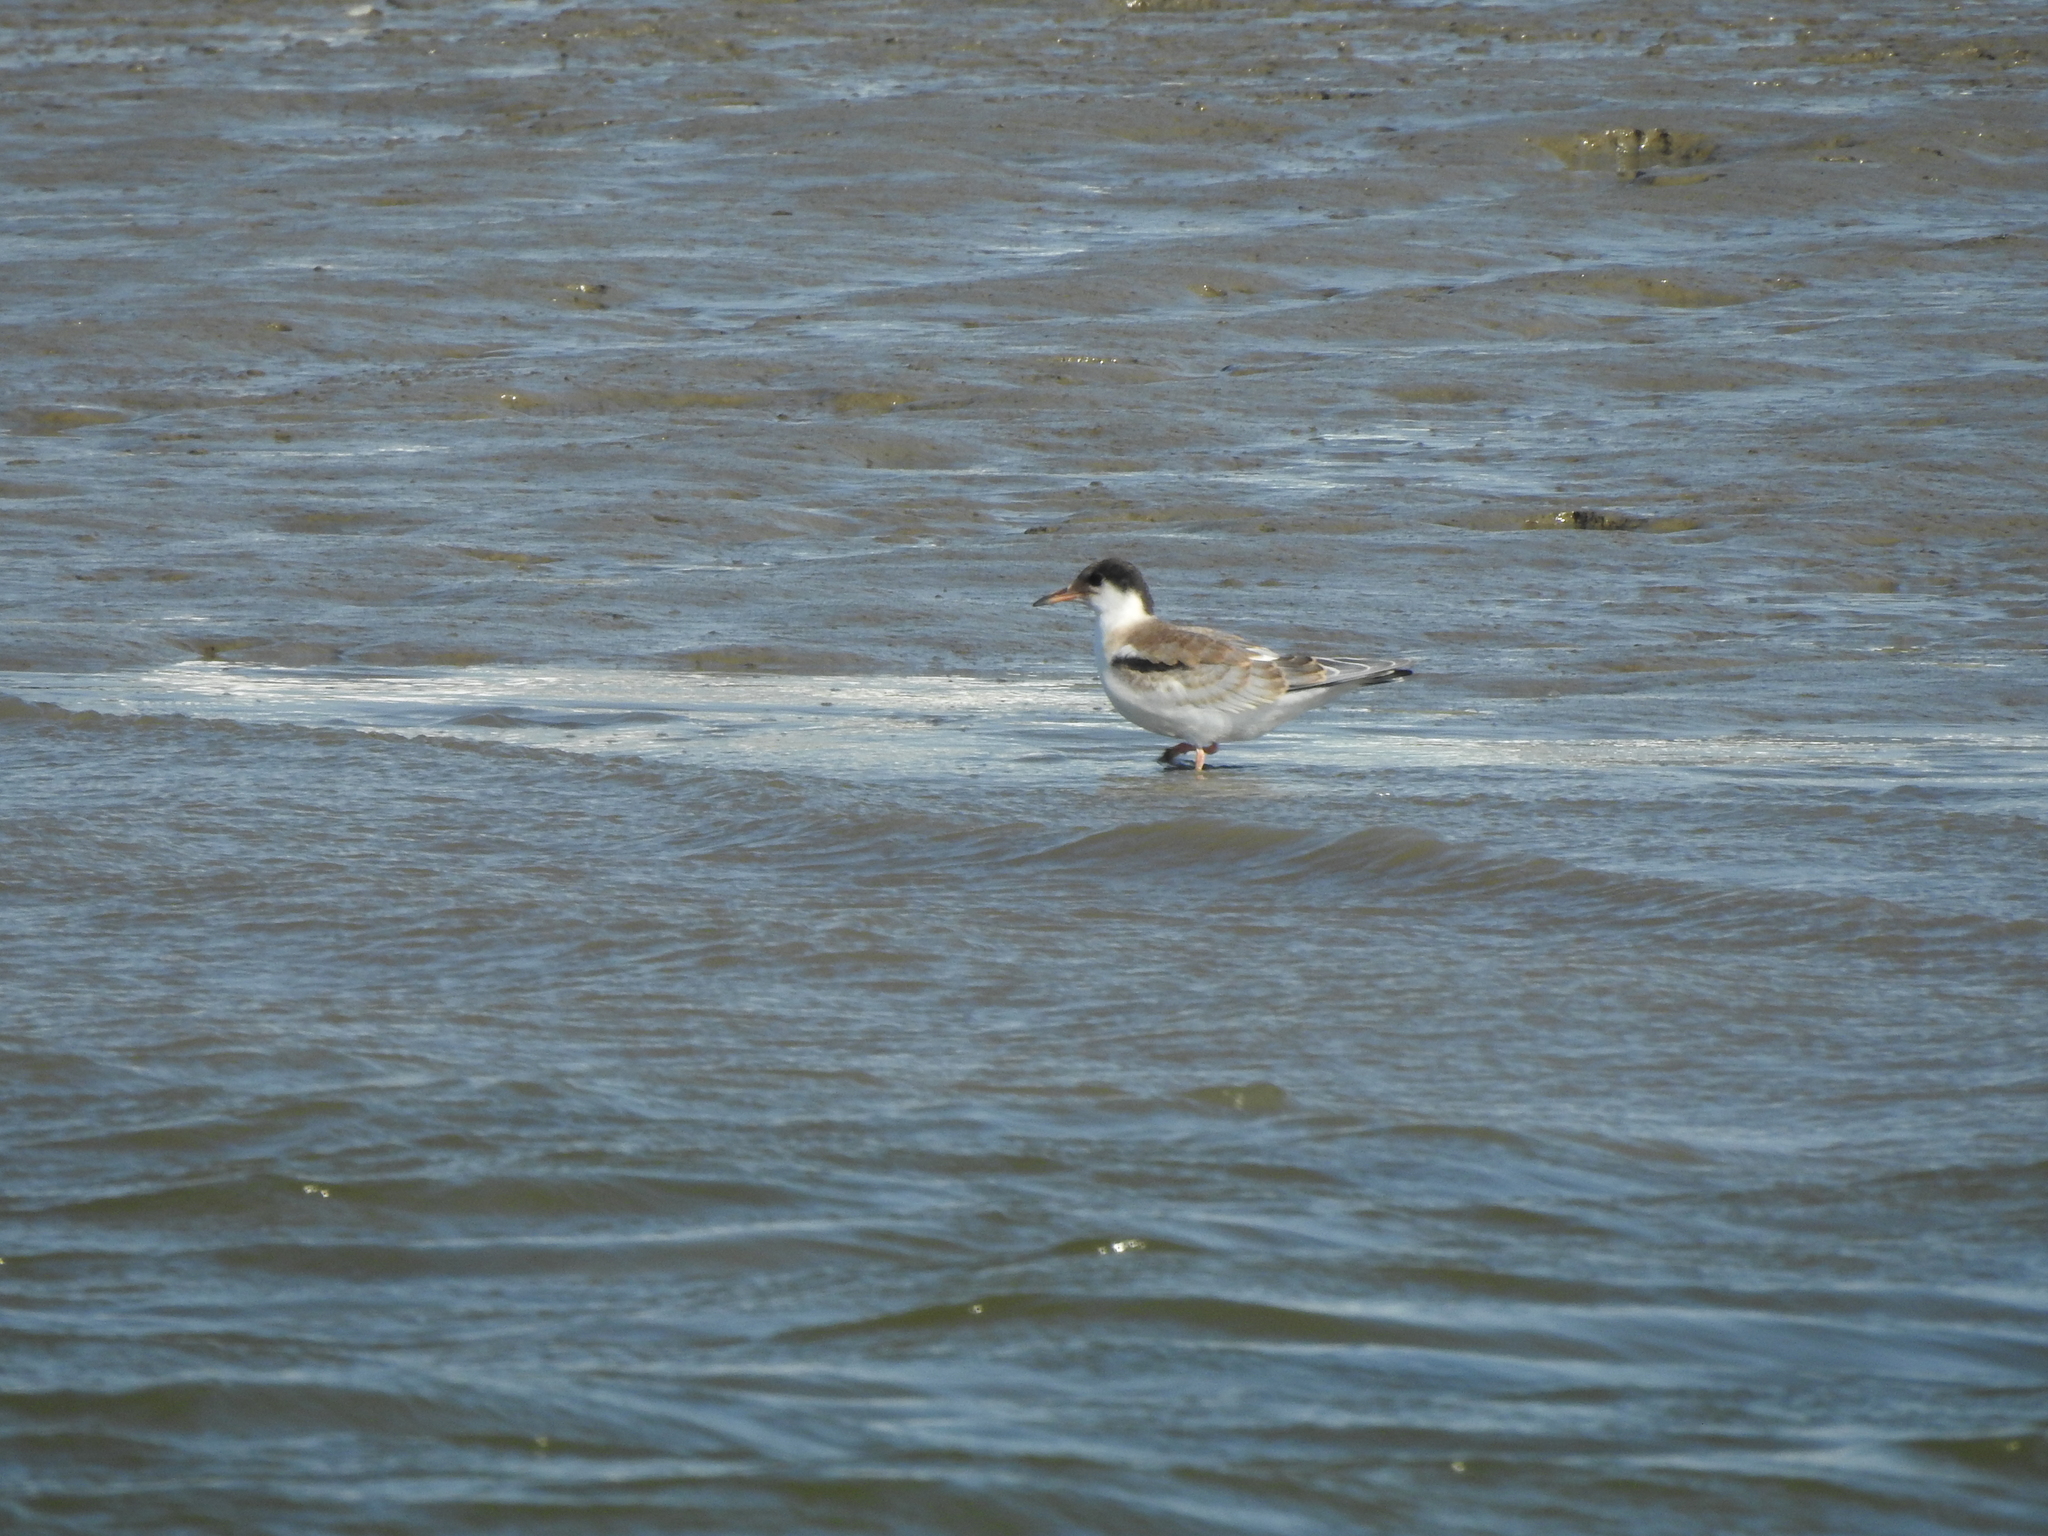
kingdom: Animalia
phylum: Chordata
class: Aves
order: Charadriiformes
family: Laridae
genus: Sterna
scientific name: Sterna hirundo
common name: Common tern
